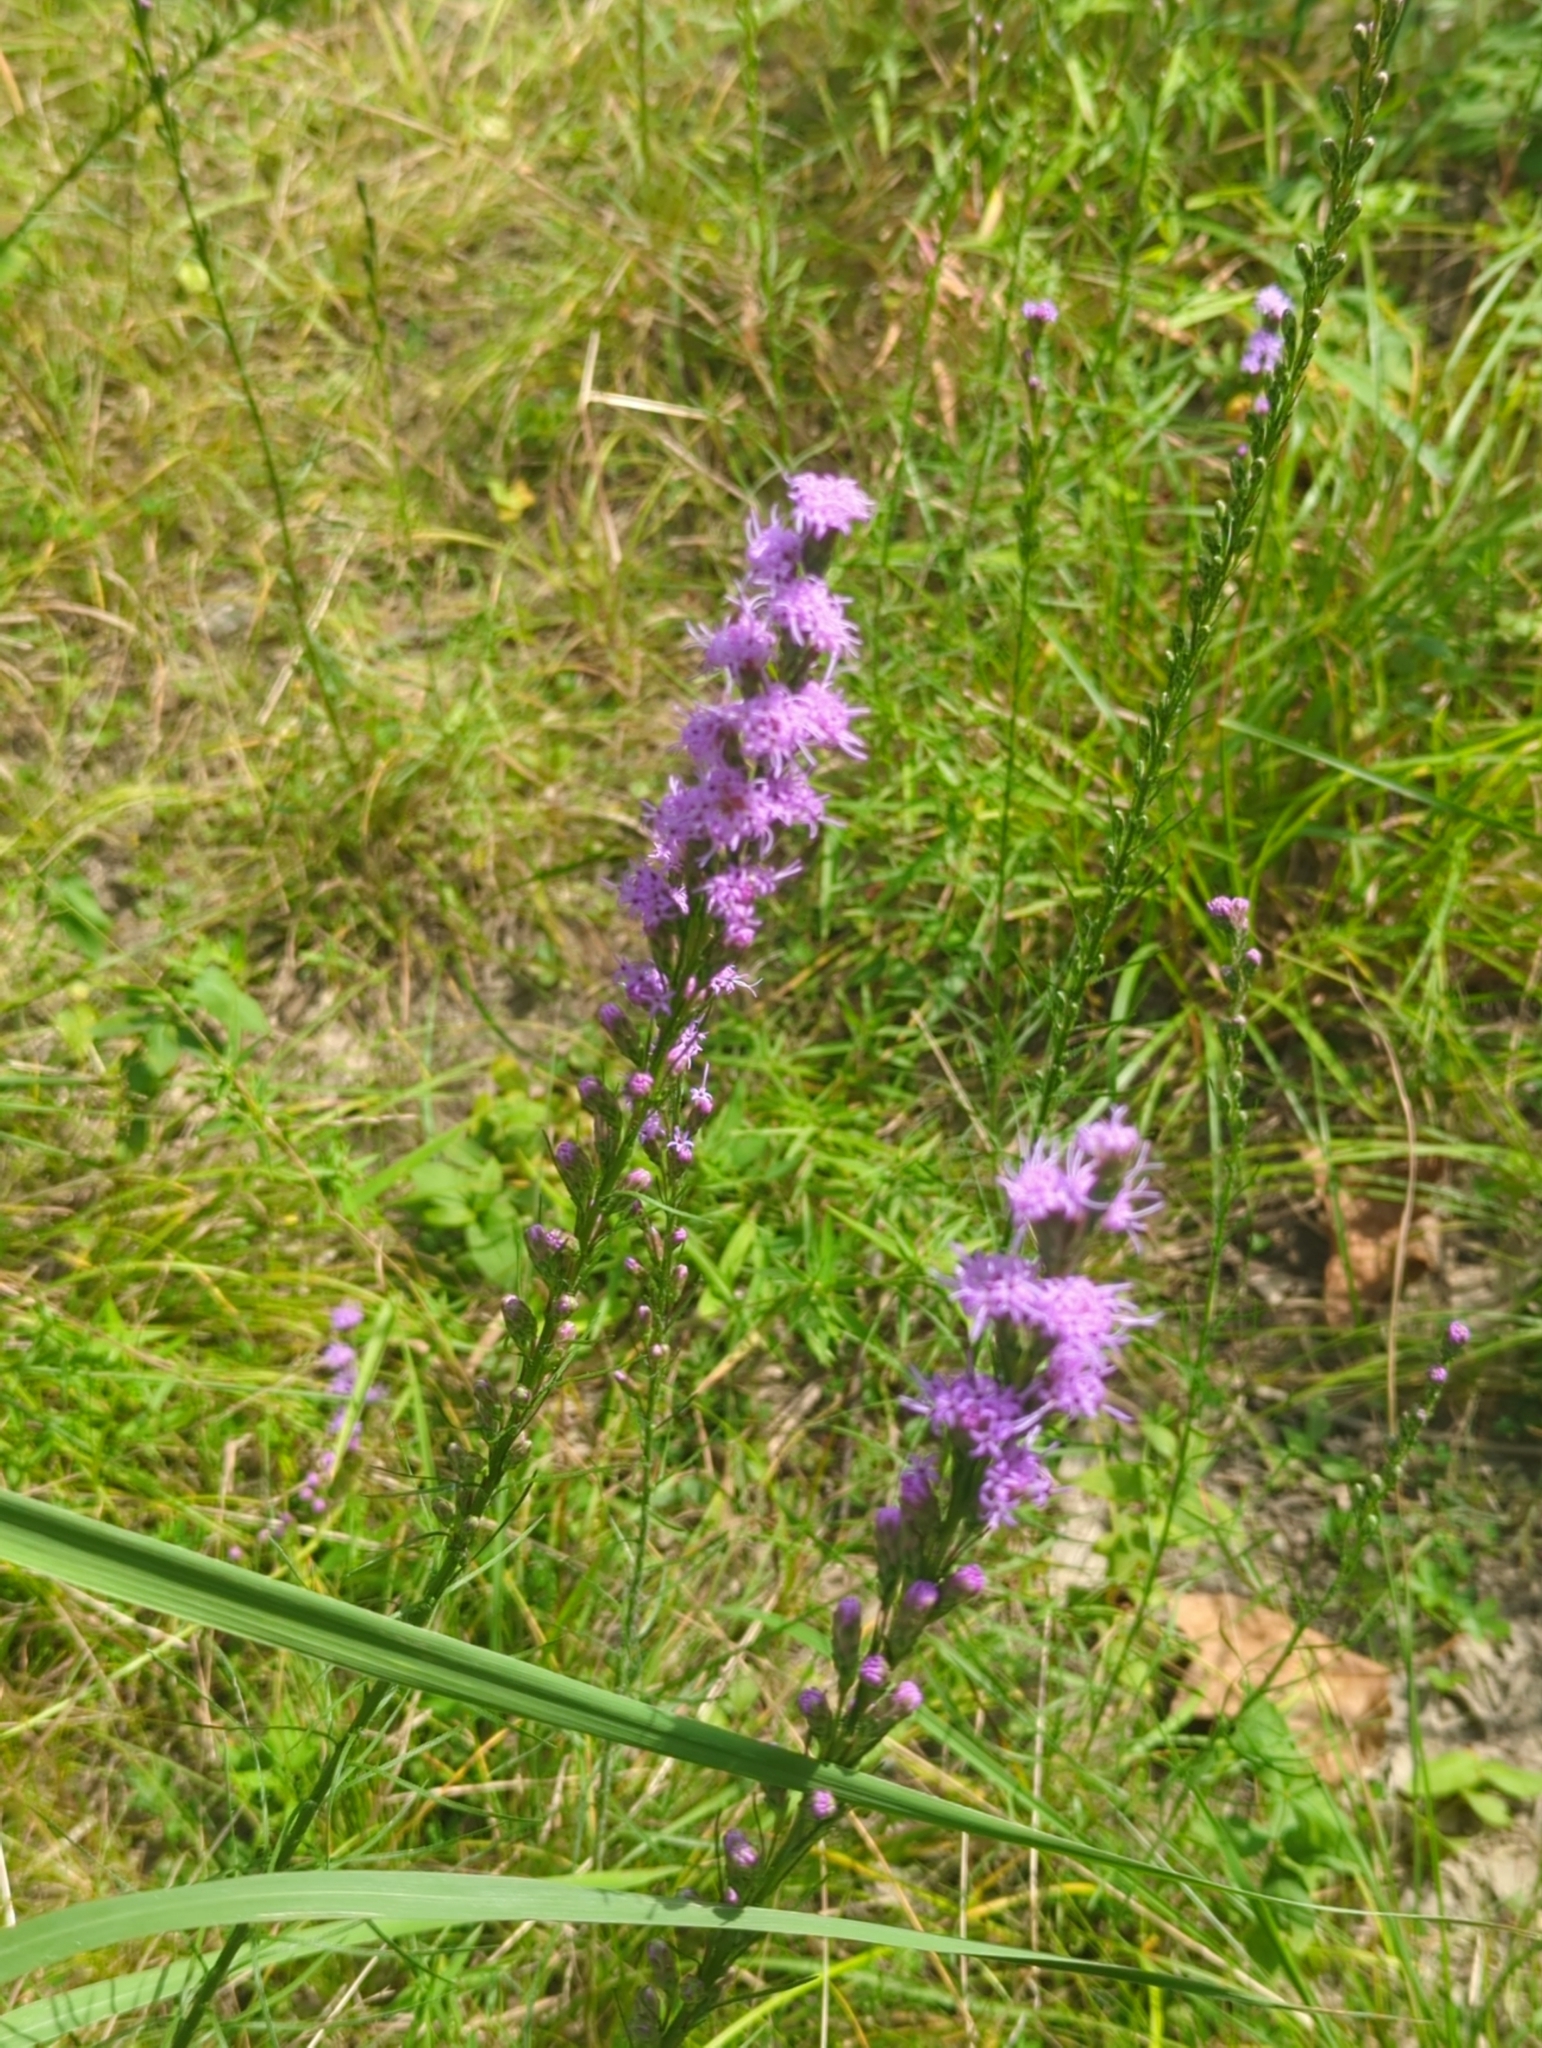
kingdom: Plantae
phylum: Tracheophyta
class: Magnoliopsida
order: Asterales
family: Asteraceae
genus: Liatris
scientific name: Liatris spicata
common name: Florist gayfeather
